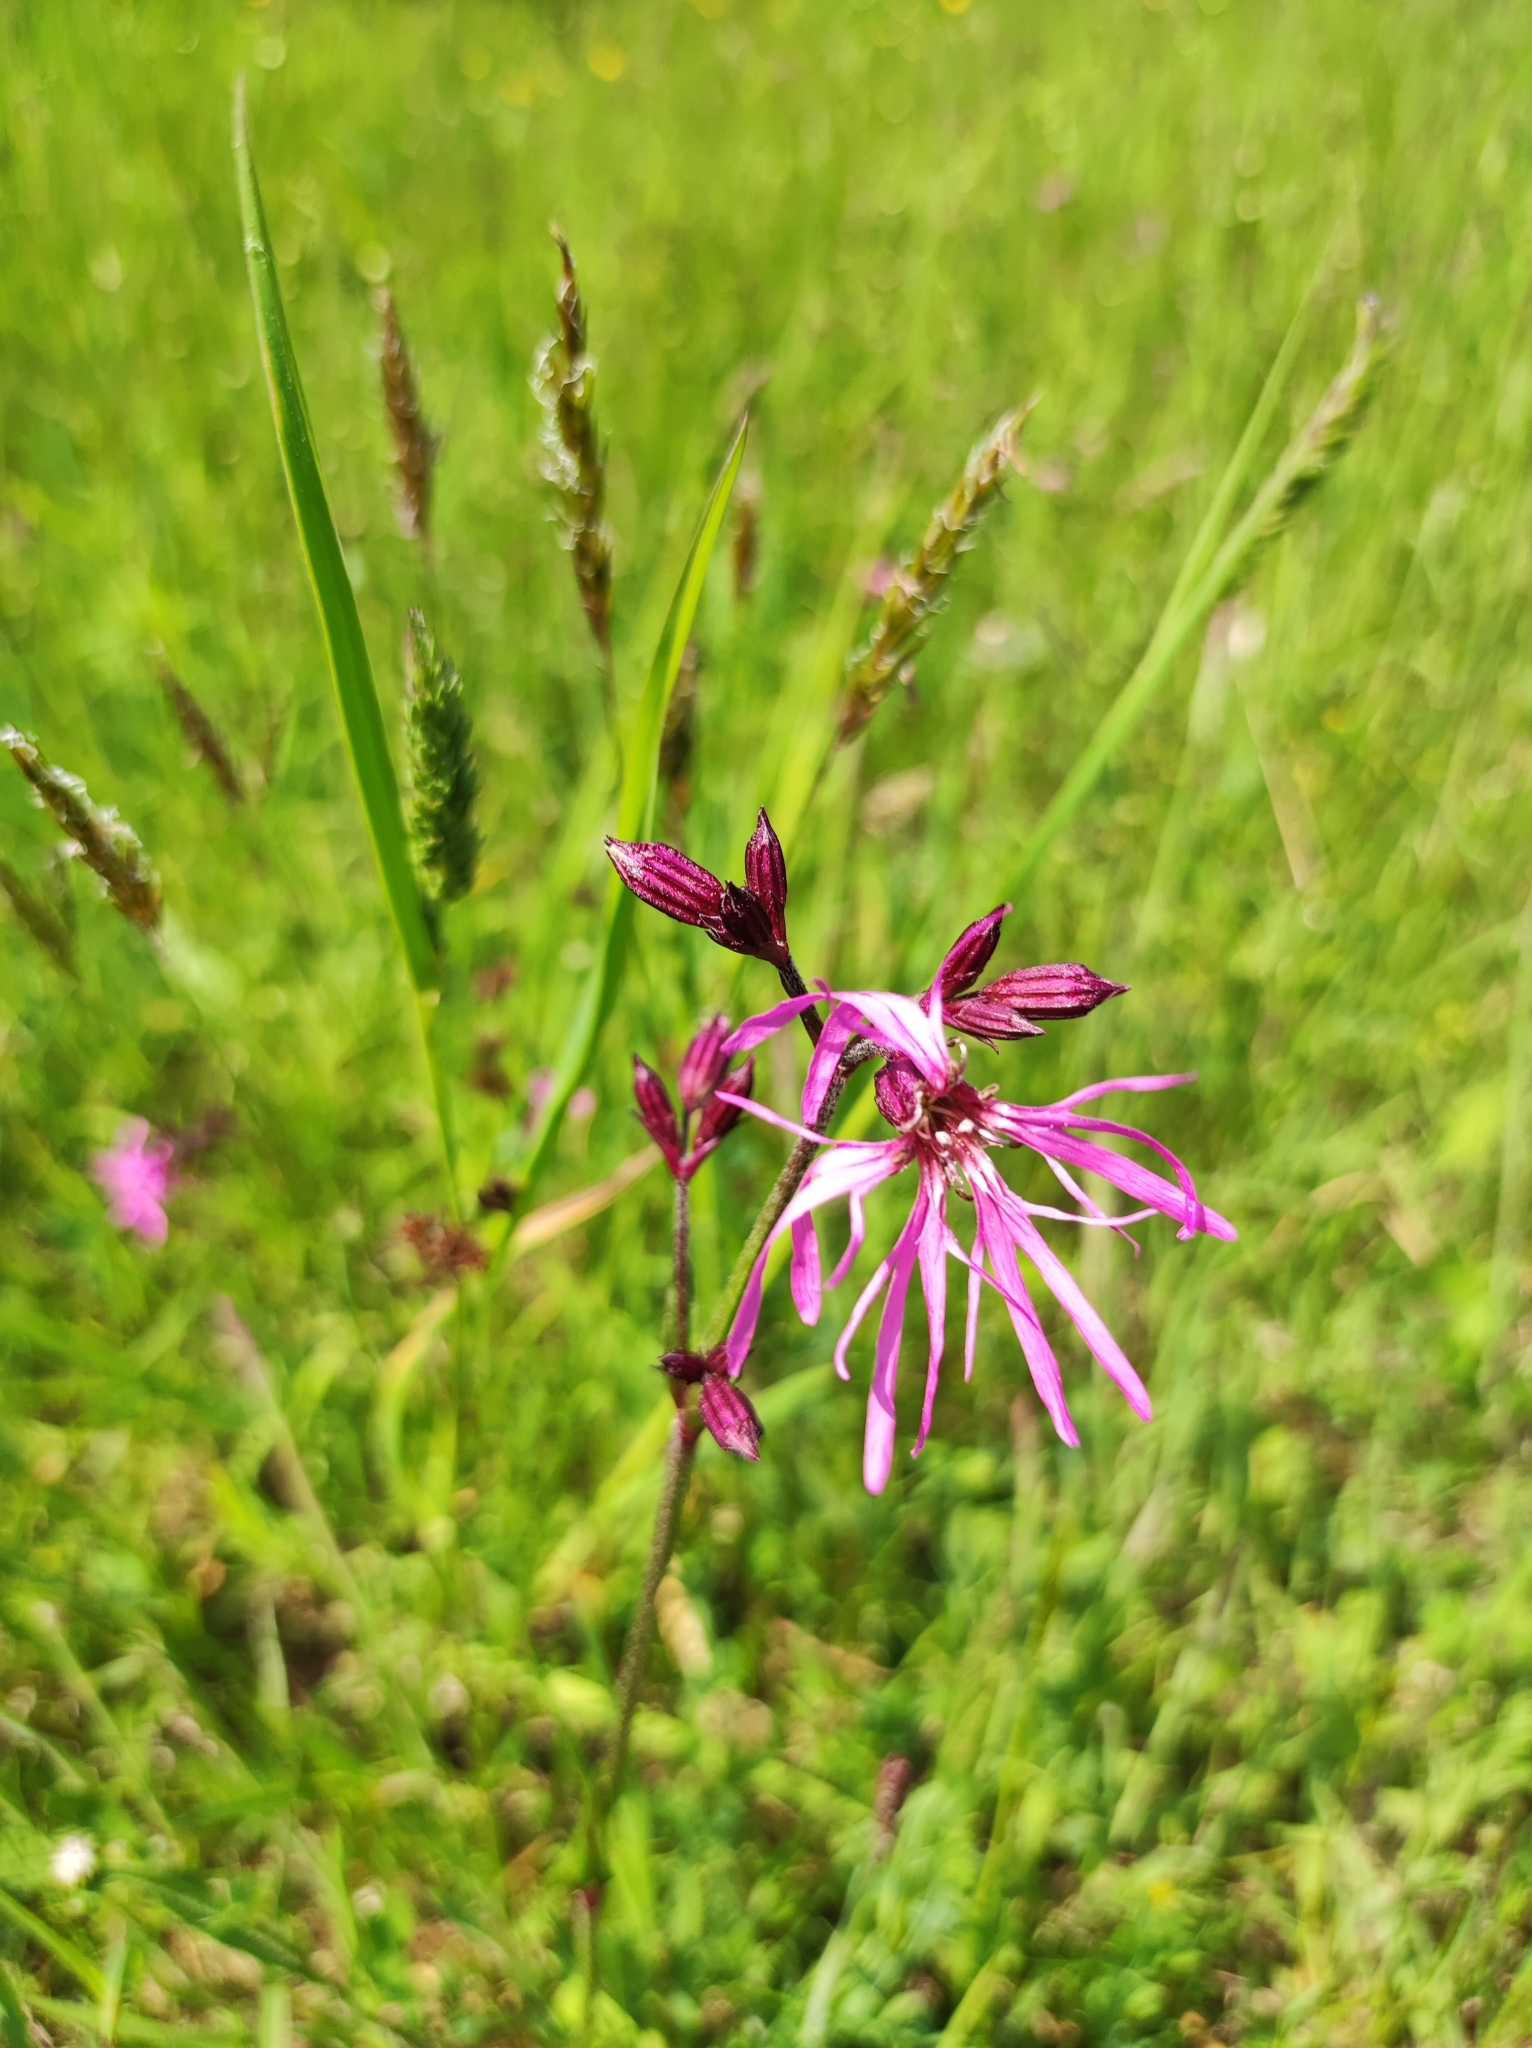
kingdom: Plantae
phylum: Tracheophyta
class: Magnoliopsida
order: Caryophyllales
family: Caryophyllaceae
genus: Silene
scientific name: Silene flos-cuculi
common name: Ragged-robin
